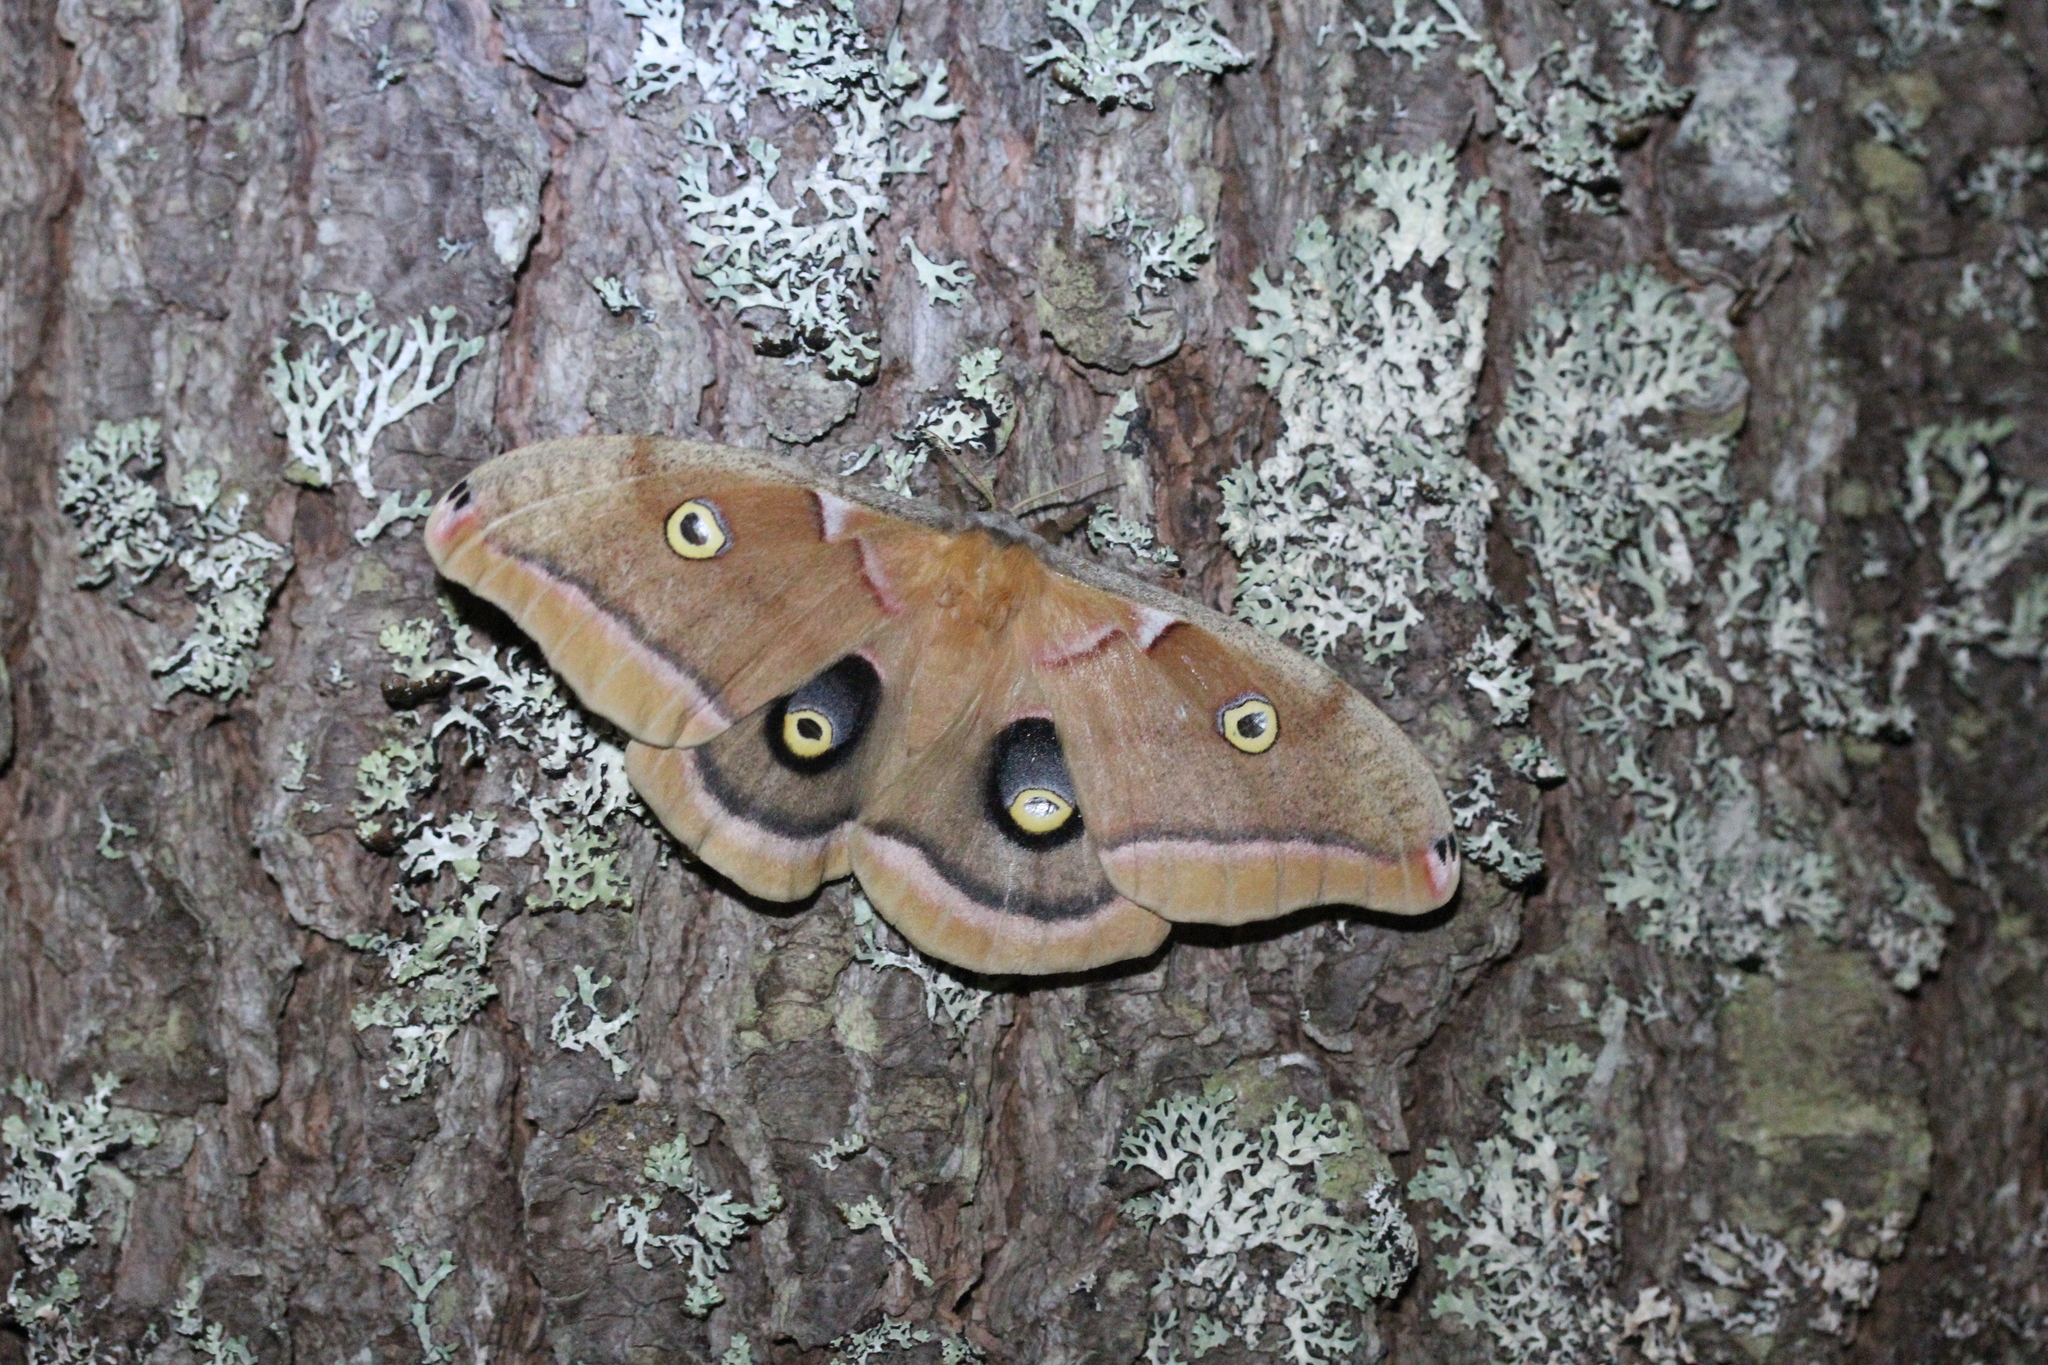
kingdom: Animalia
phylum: Arthropoda
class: Insecta
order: Lepidoptera
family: Saturniidae
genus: Antheraea
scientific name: Antheraea polyphemus
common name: Polyphemus moth
